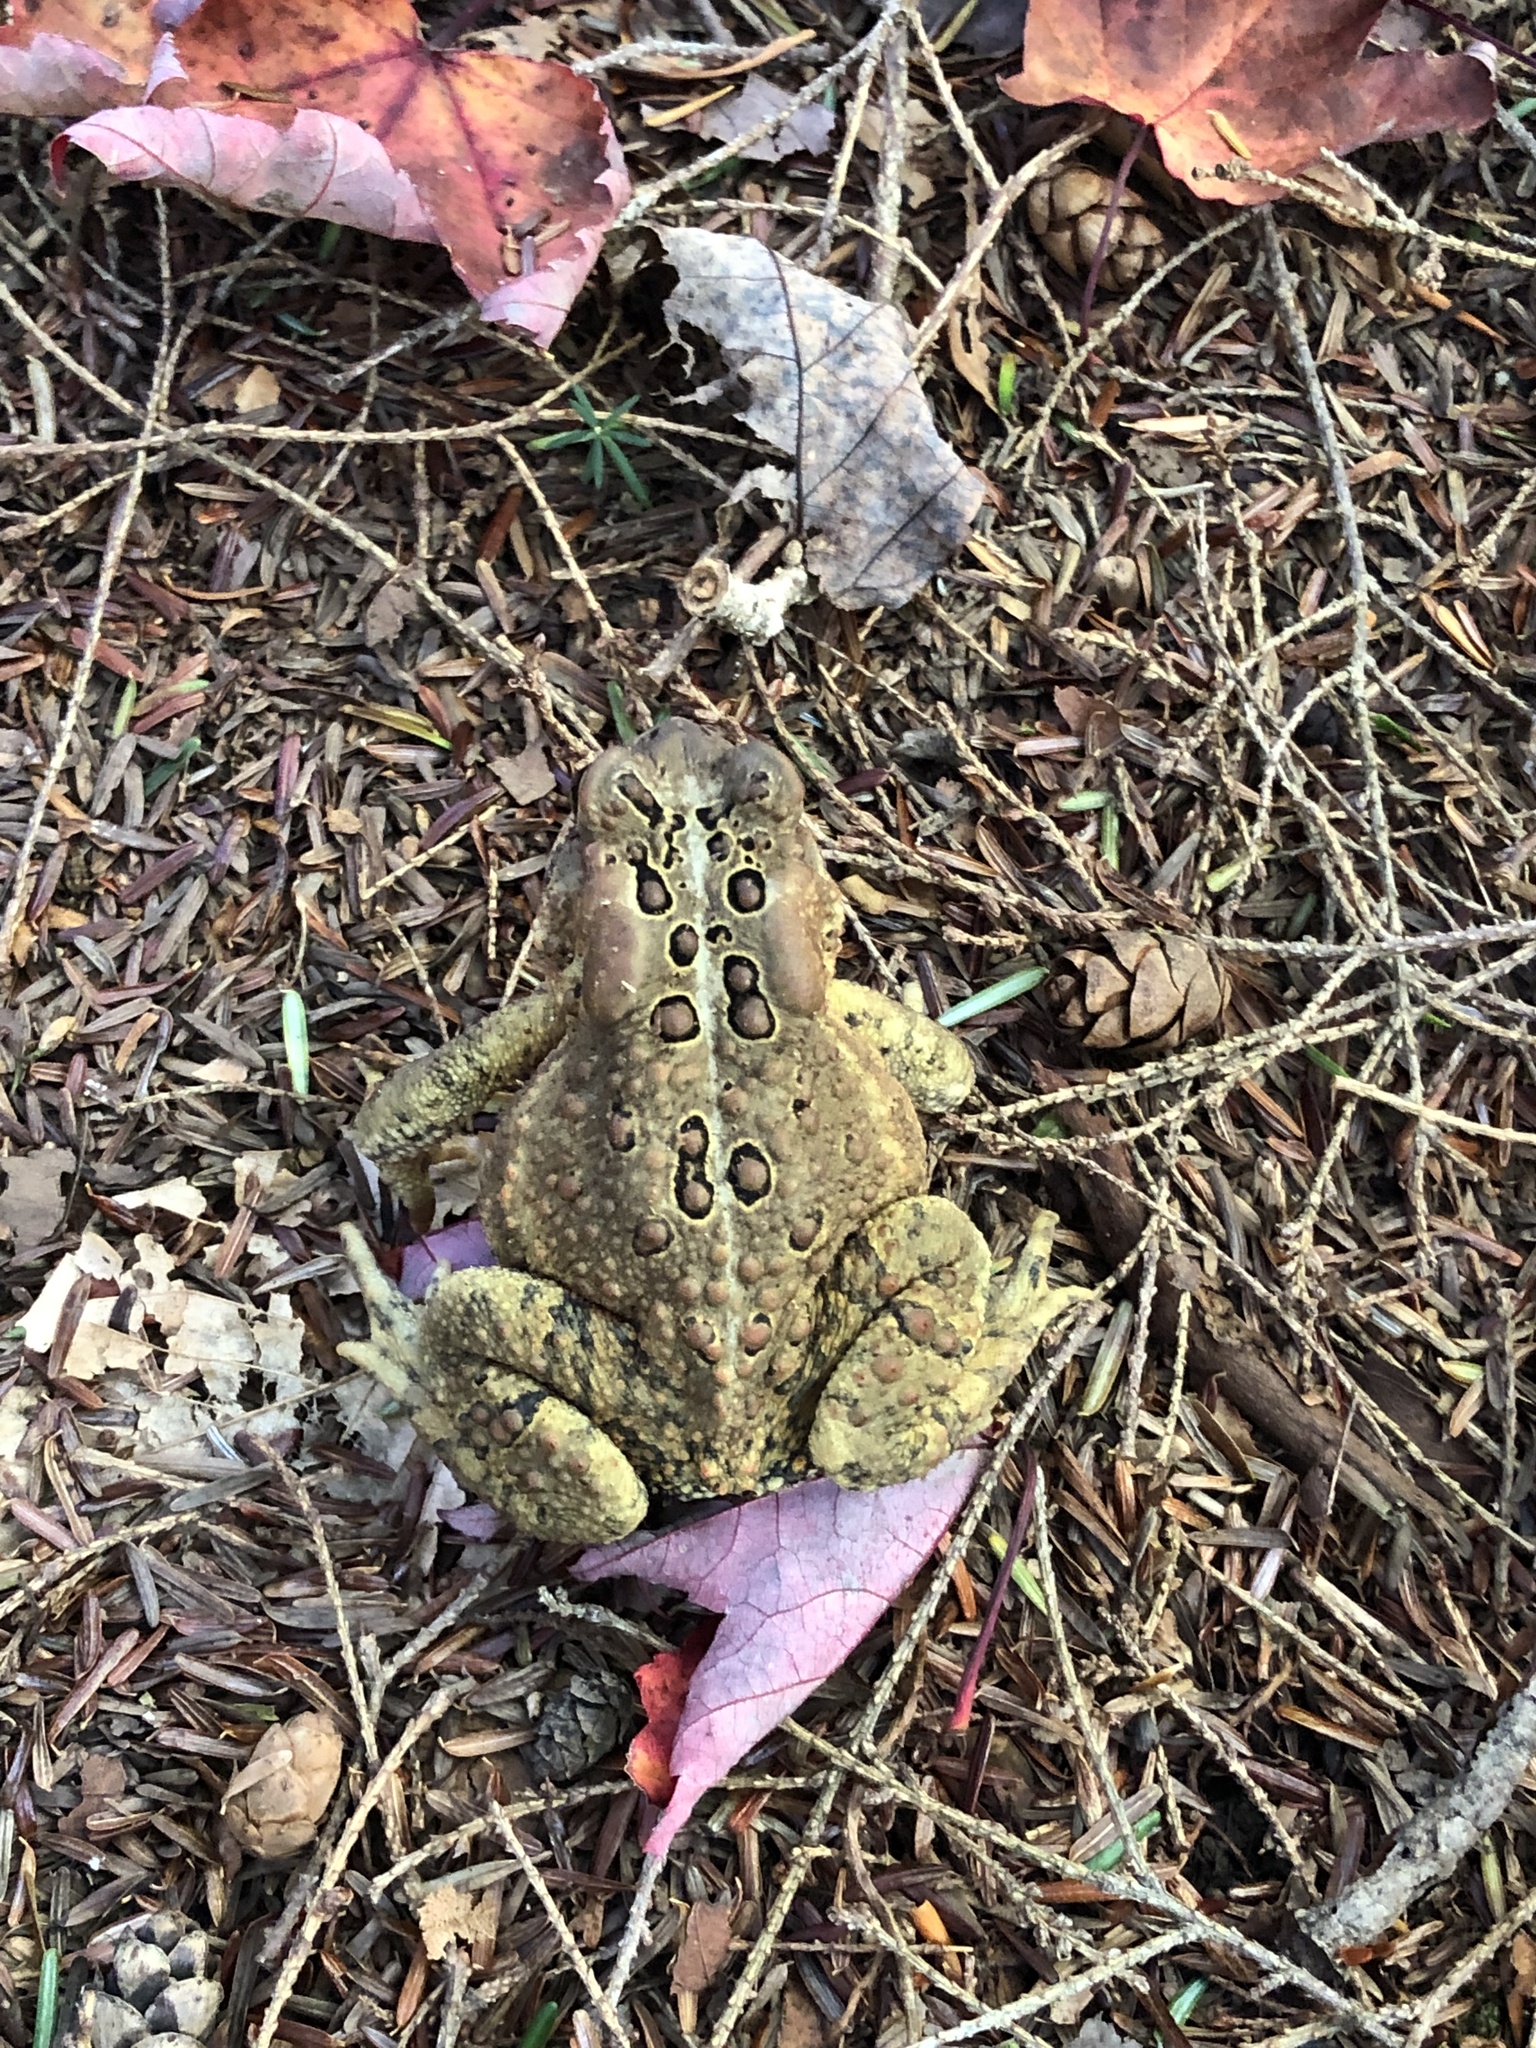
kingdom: Animalia
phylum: Chordata
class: Amphibia
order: Anura
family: Bufonidae
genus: Anaxyrus
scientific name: Anaxyrus americanus
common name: American toad
